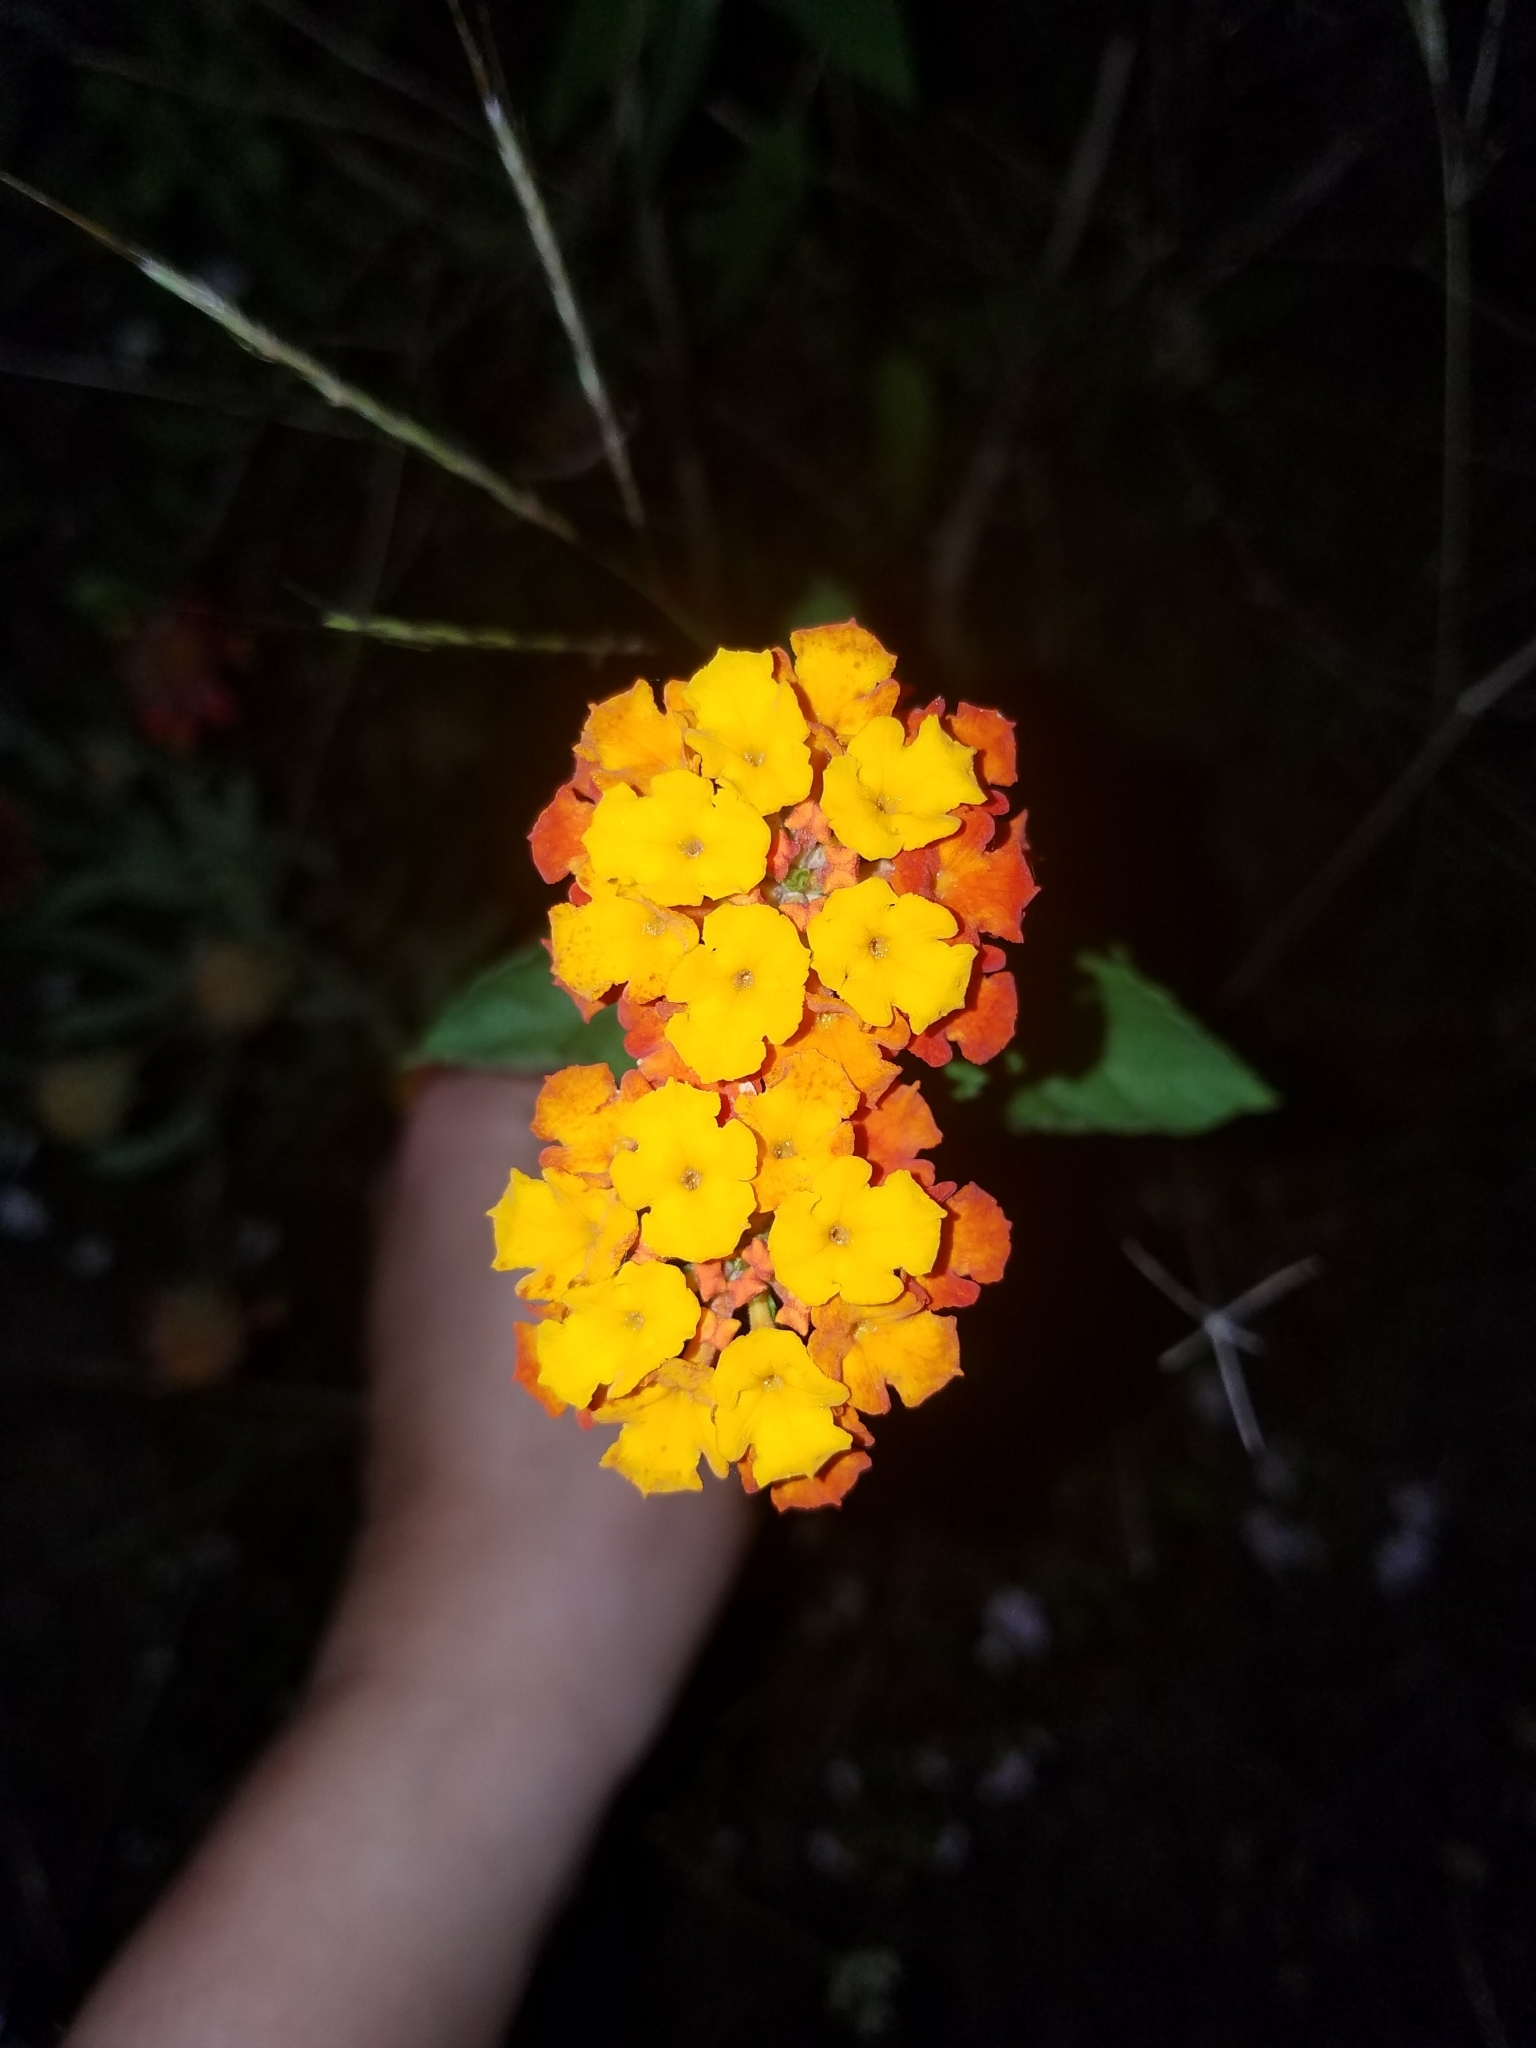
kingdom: Plantae
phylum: Tracheophyta
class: Magnoliopsida
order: Lamiales
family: Verbenaceae
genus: Lantana
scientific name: Lantana camara
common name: Lantana
